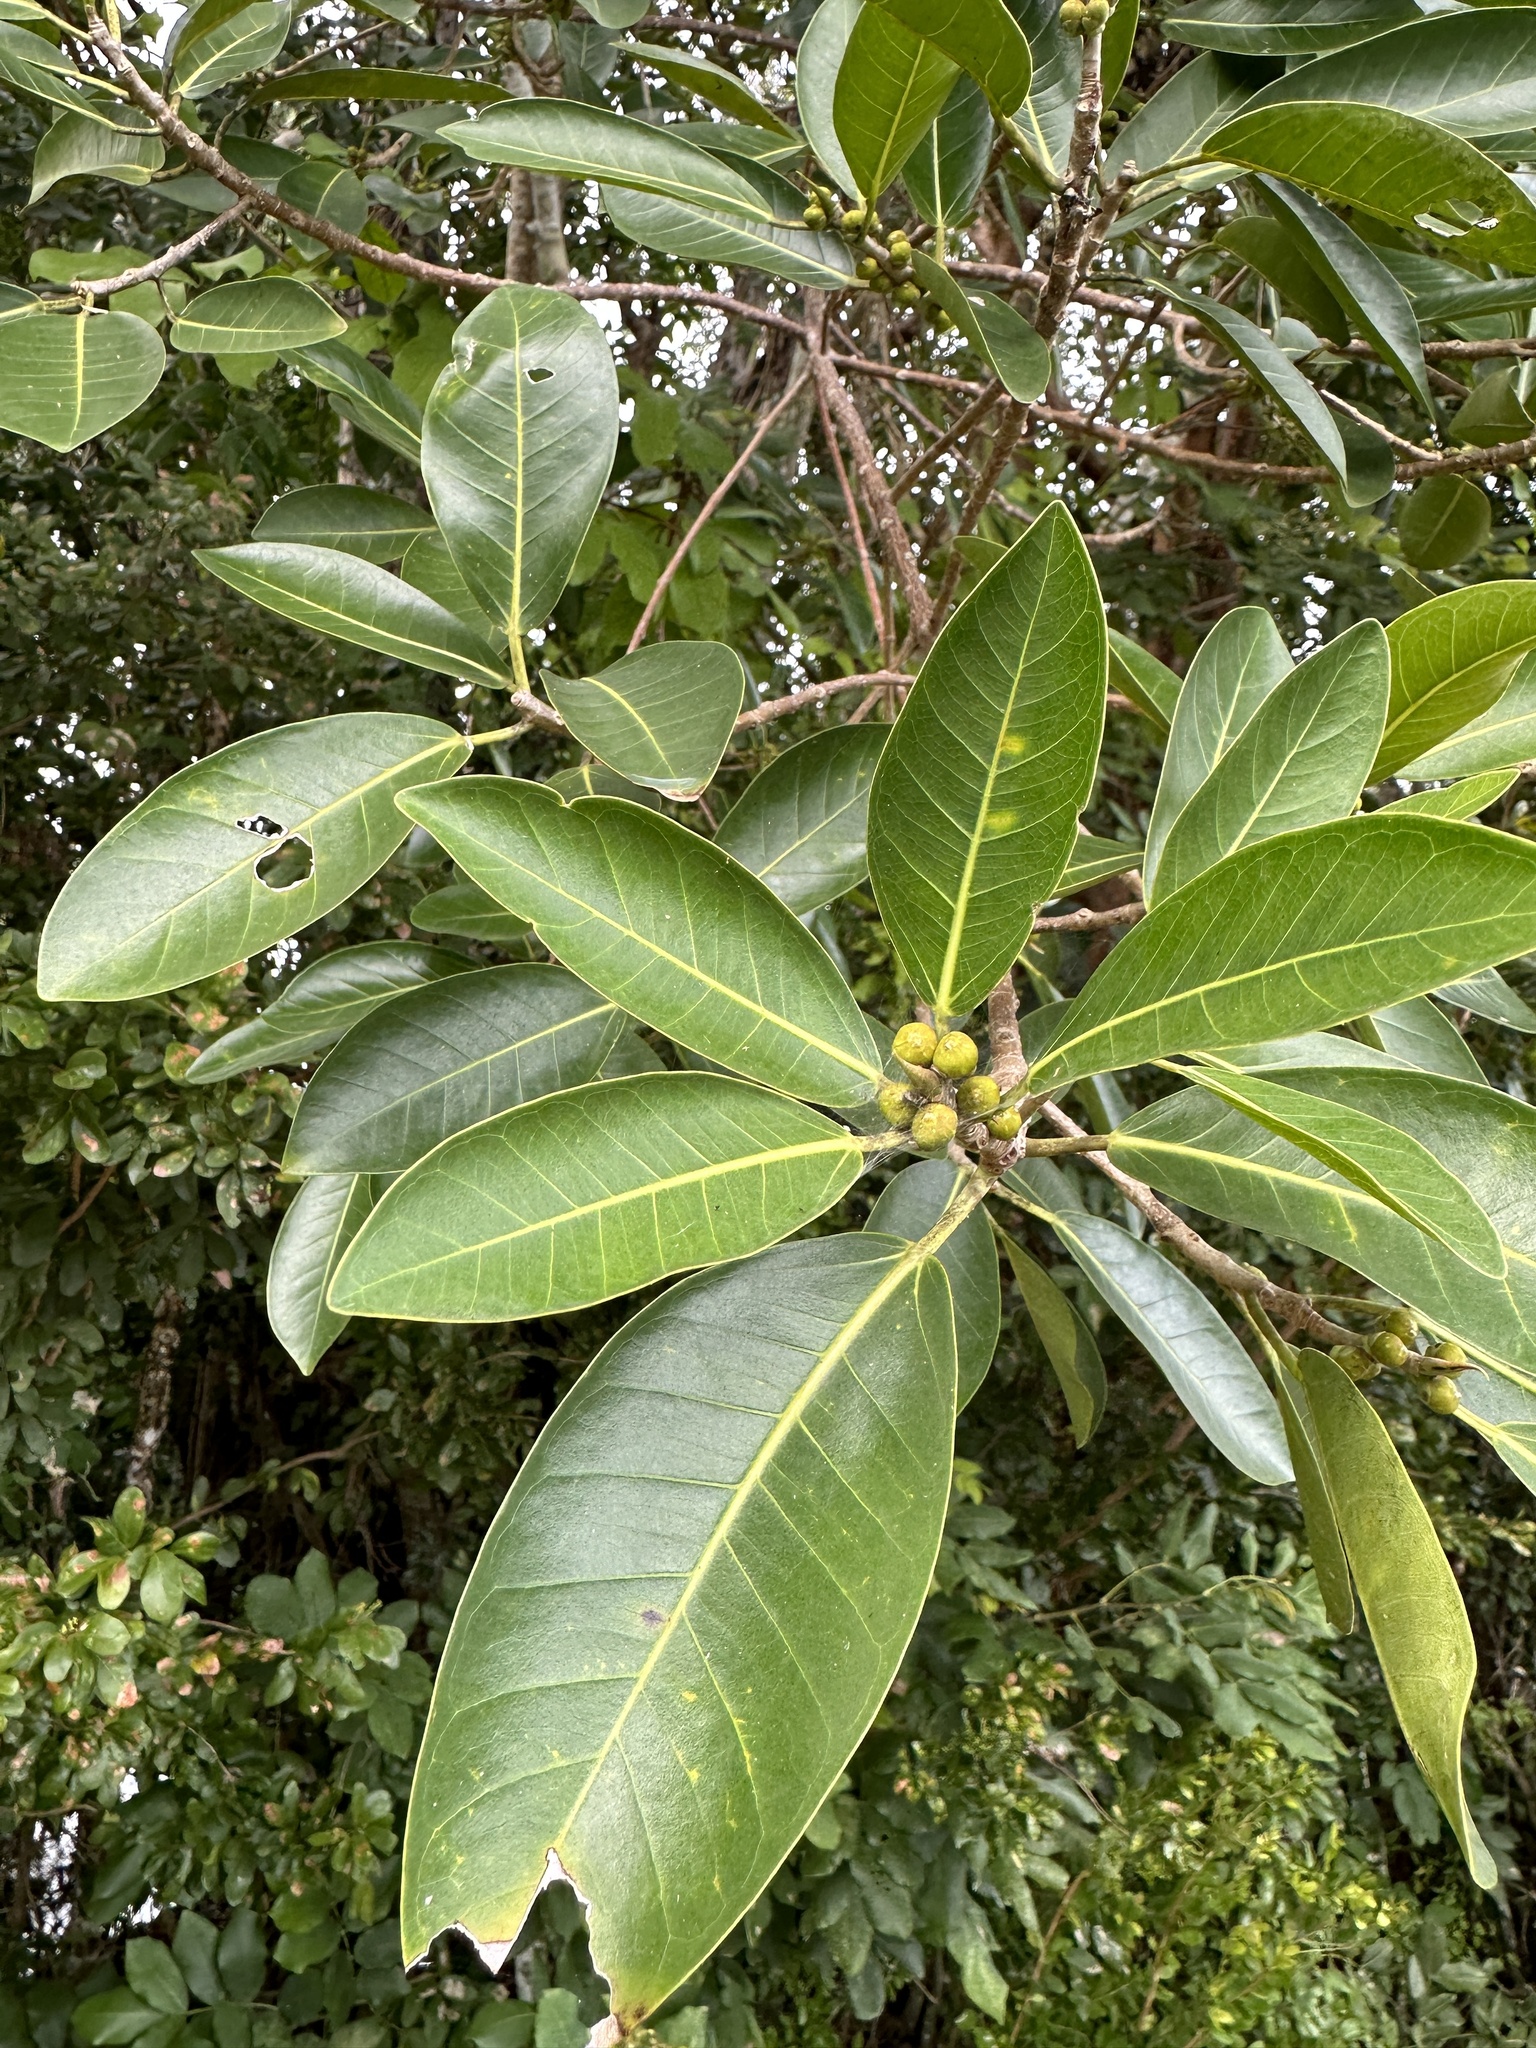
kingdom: Plantae
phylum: Tracheophyta
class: Magnoliopsida
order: Rosales
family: Moraceae
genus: Ficus
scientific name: Ficus aurea
